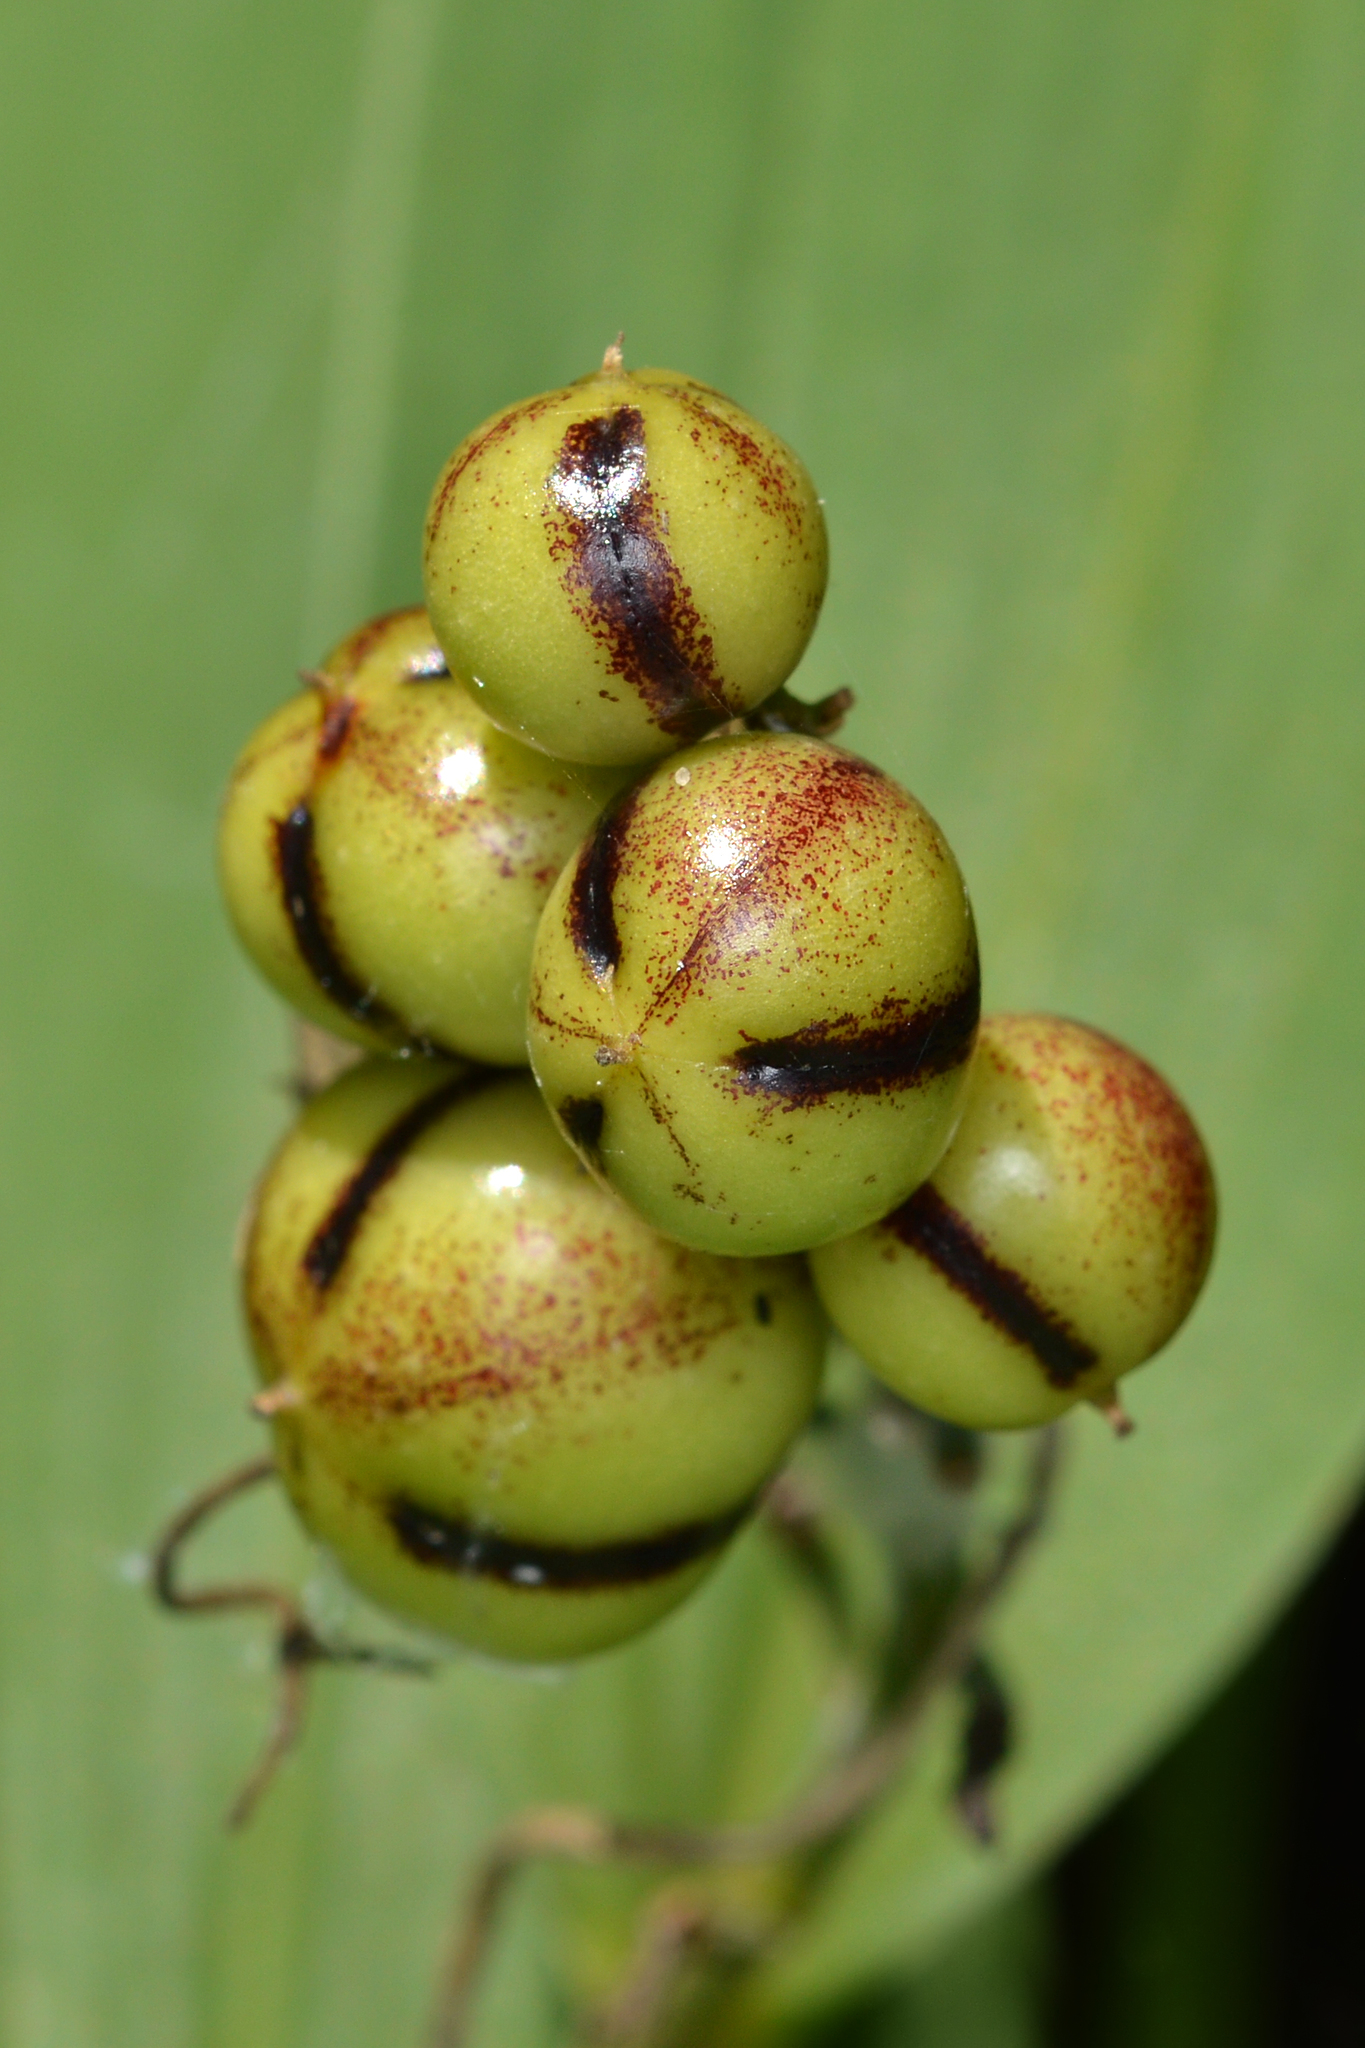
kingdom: Plantae
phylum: Tracheophyta
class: Liliopsida
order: Asparagales
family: Asparagaceae
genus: Maianthemum
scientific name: Maianthemum stellatum
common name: Little false solomon's seal
